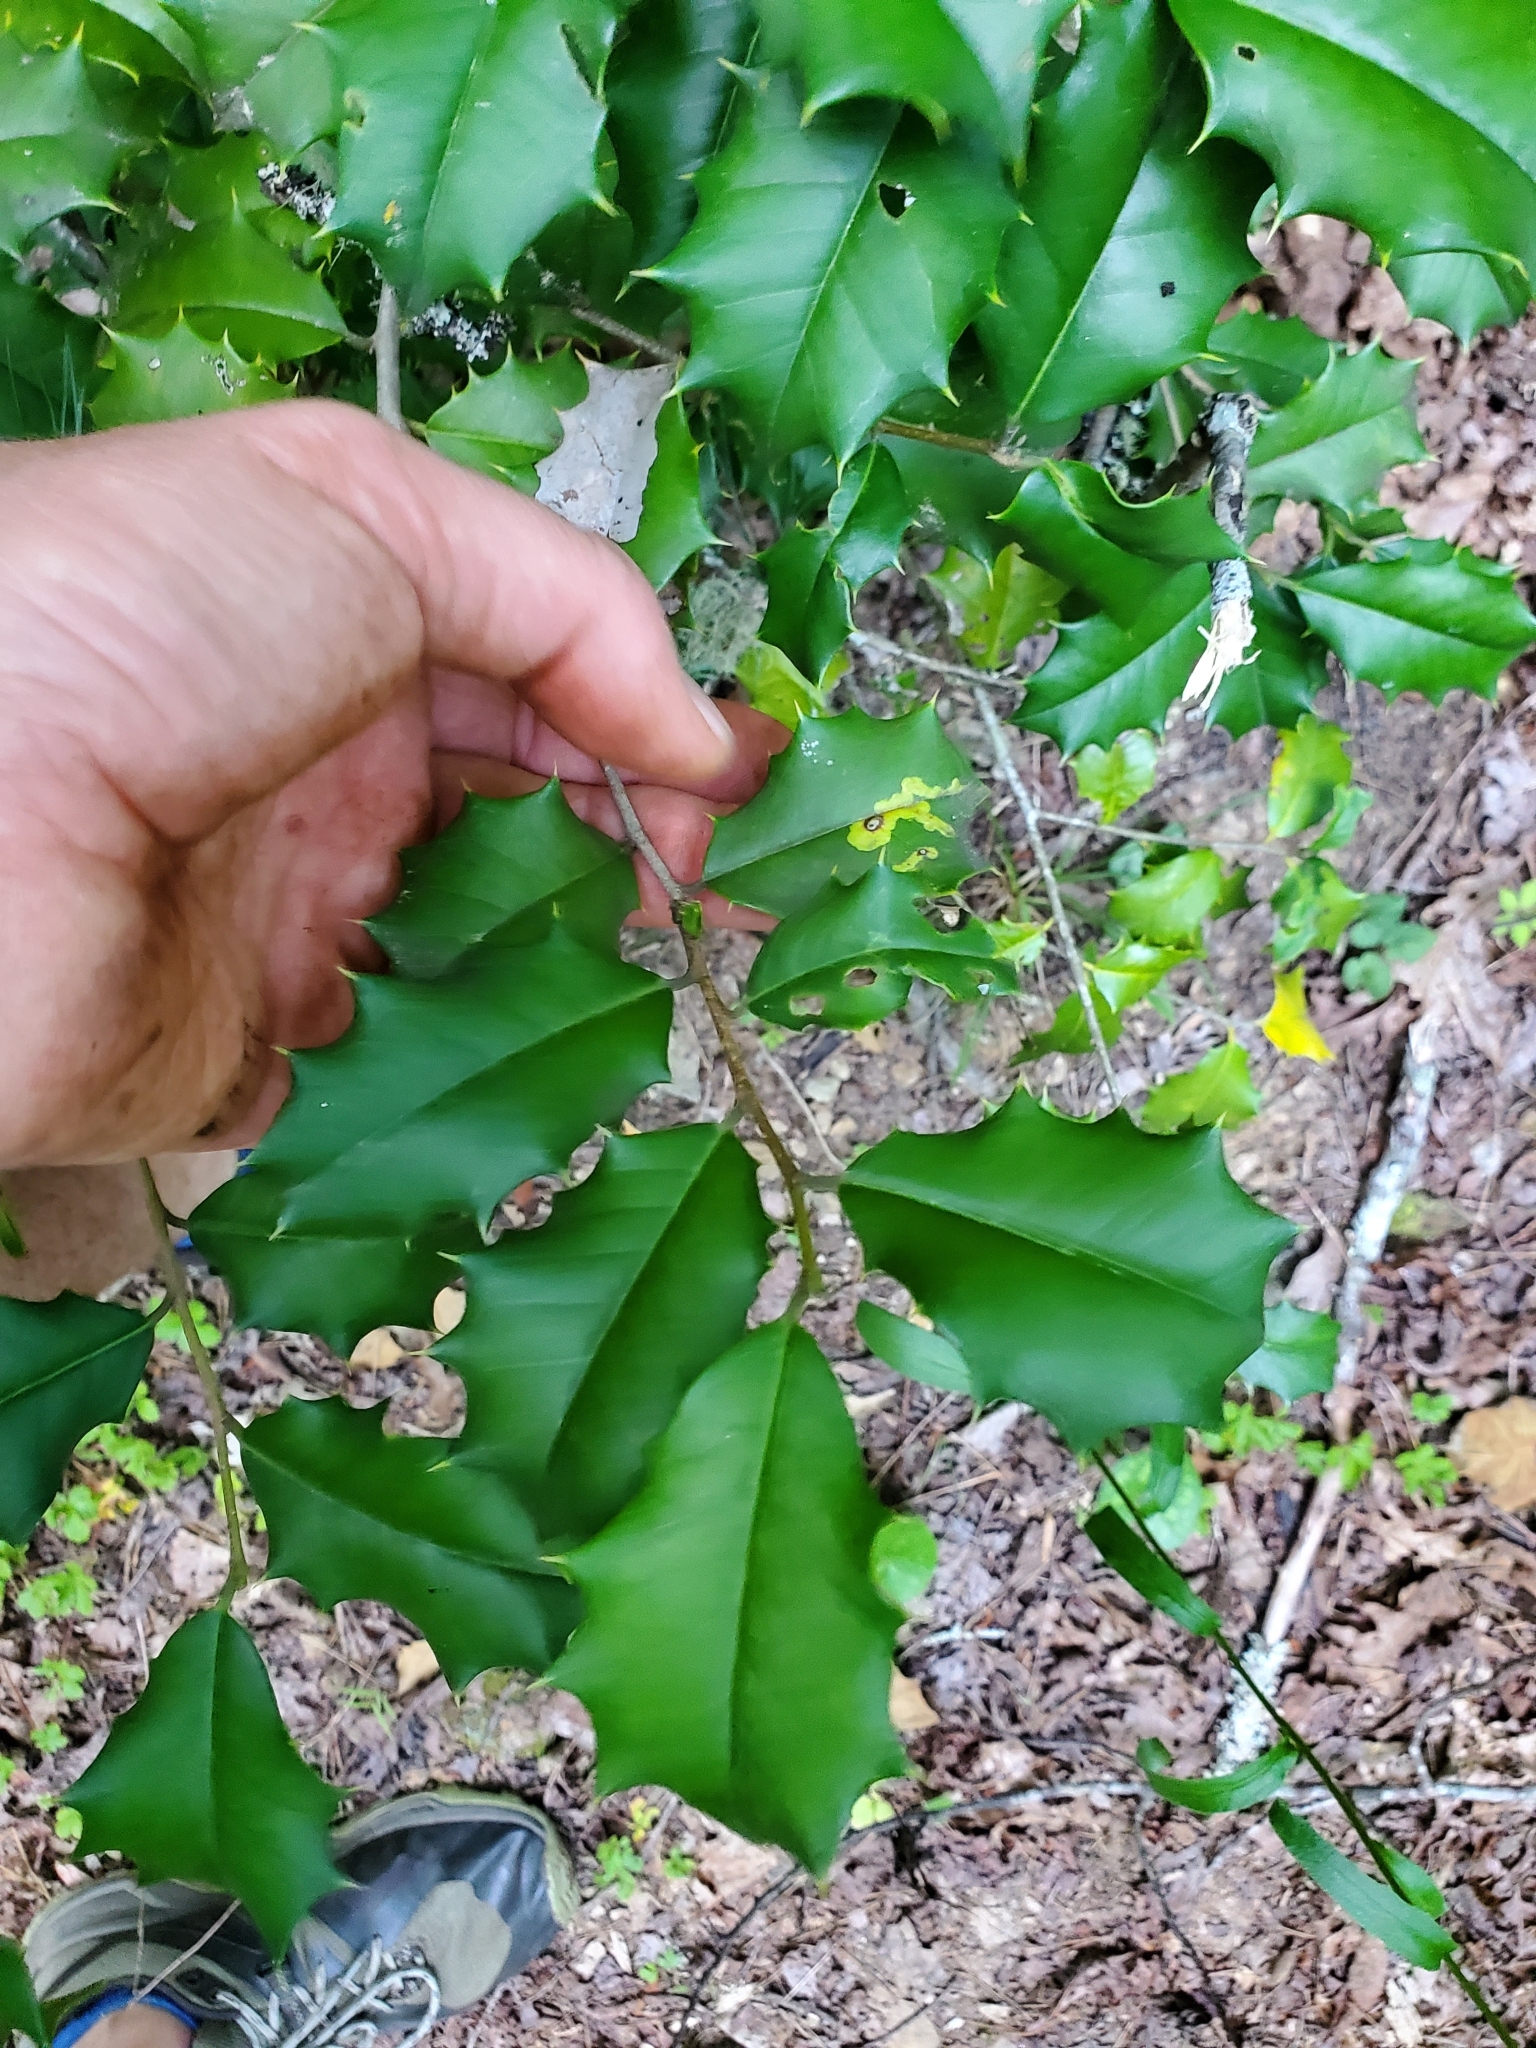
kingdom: Plantae
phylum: Tracheophyta
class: Magnoliopsida
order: Aquifoliales
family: Aquifoliaceae
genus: Ilex
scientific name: Ilex opaca
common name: American holly
